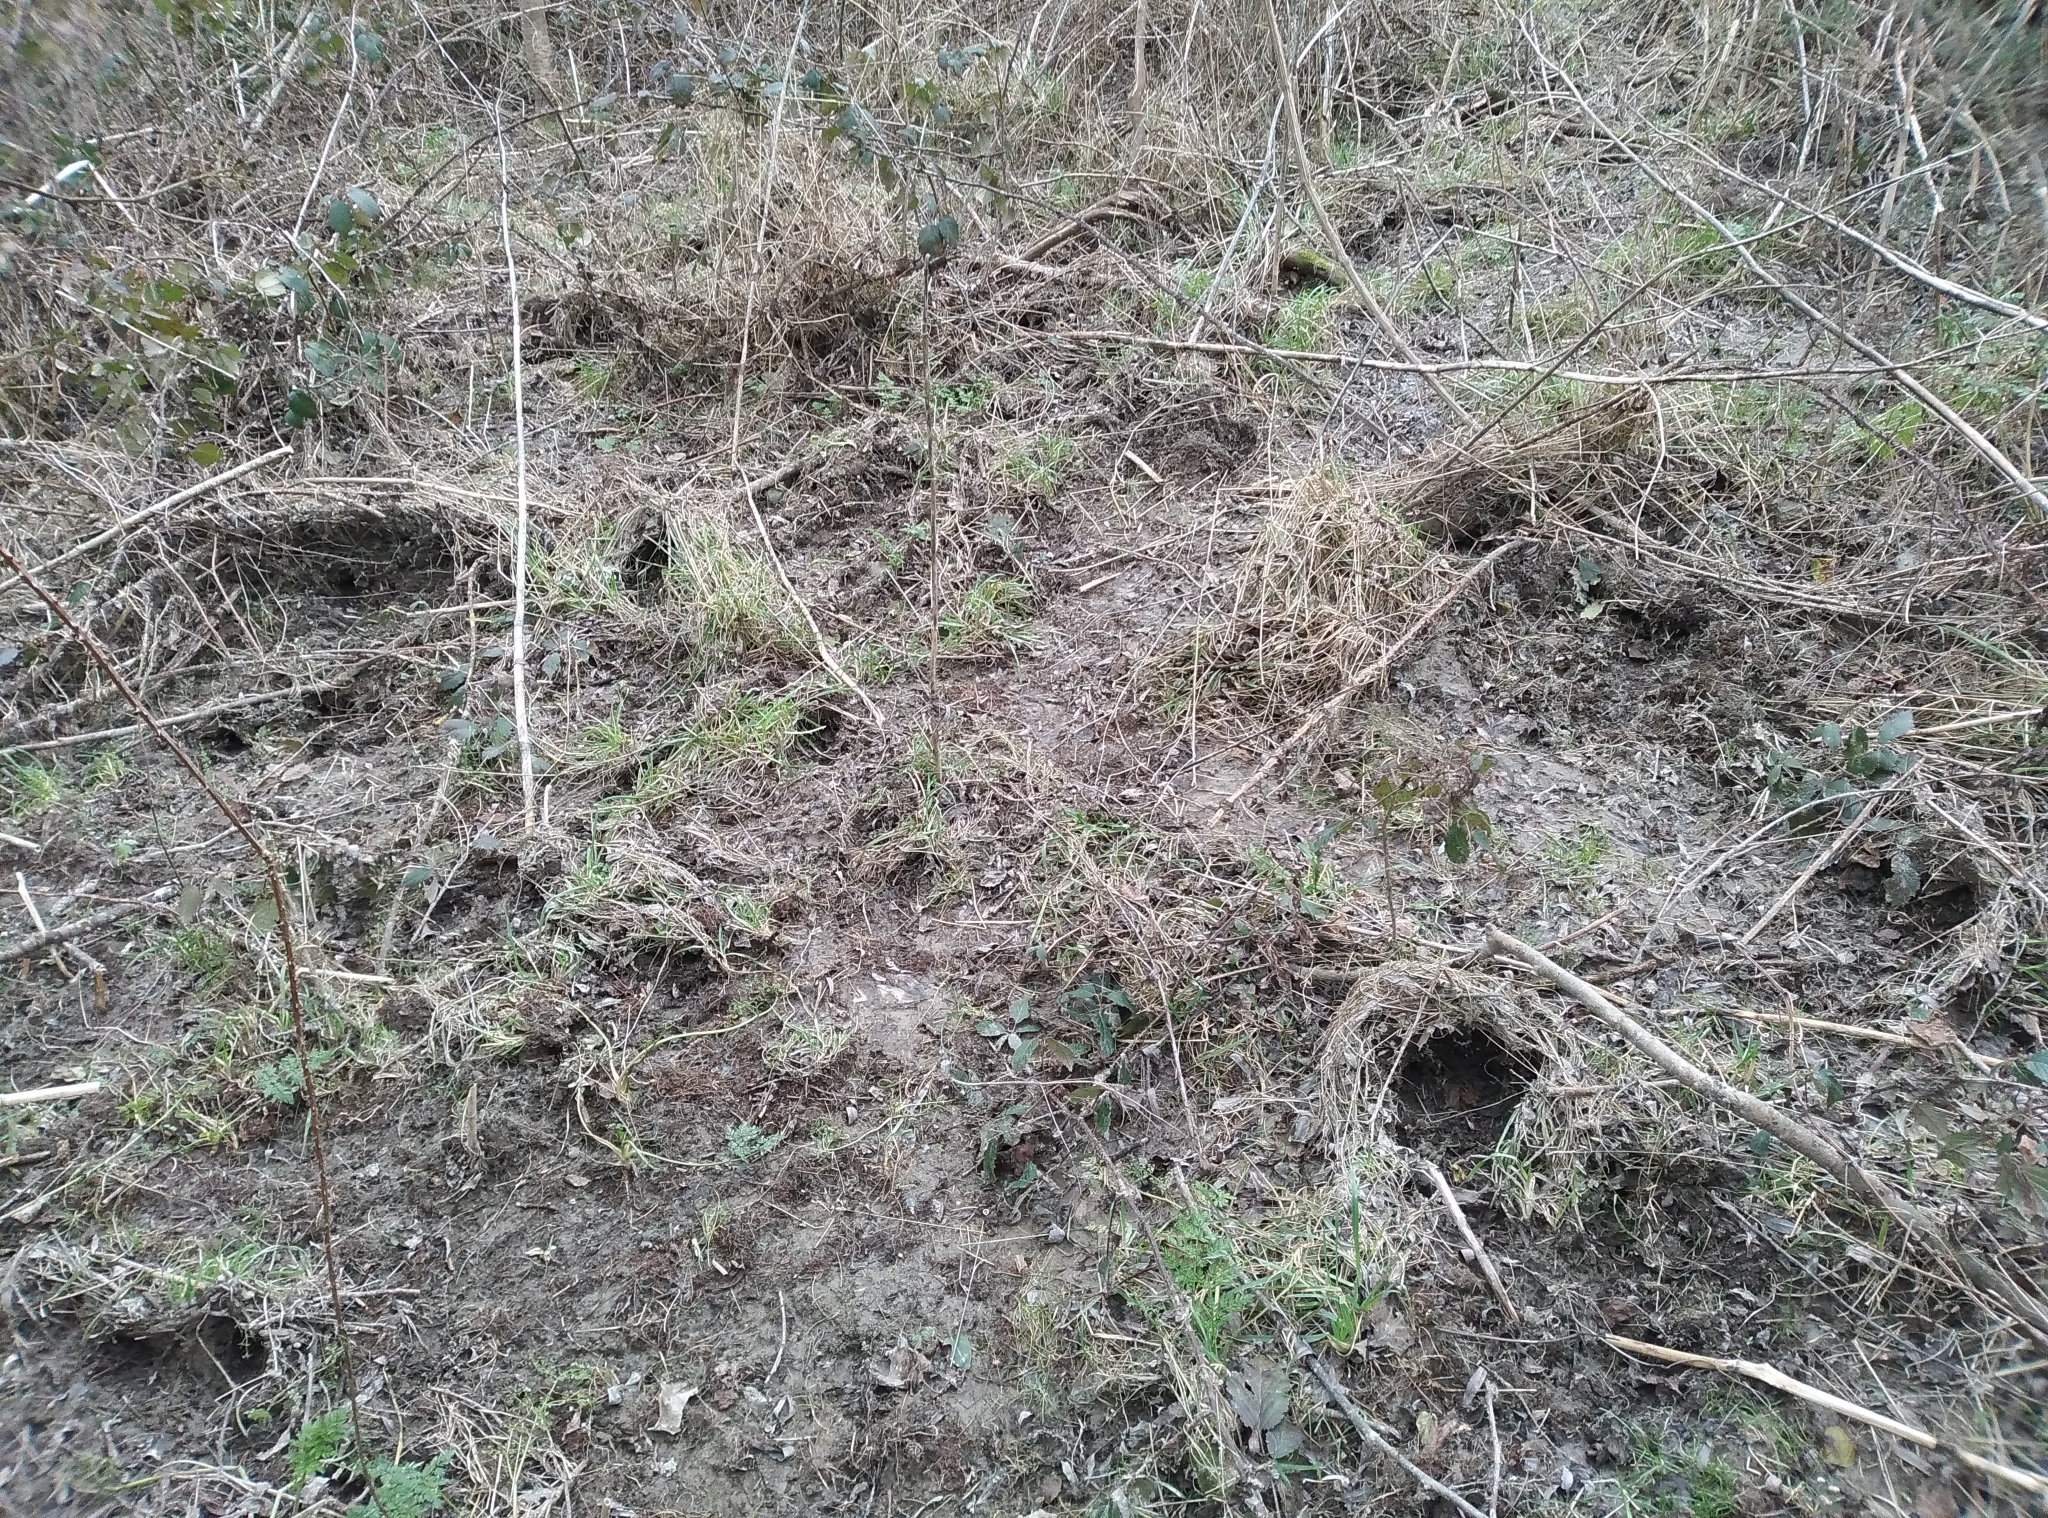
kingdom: Animalia
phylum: Chordata
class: Mammalia
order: Artiodactyla
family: Suidae
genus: Sus
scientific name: Sus scrofa
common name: Wild boar
